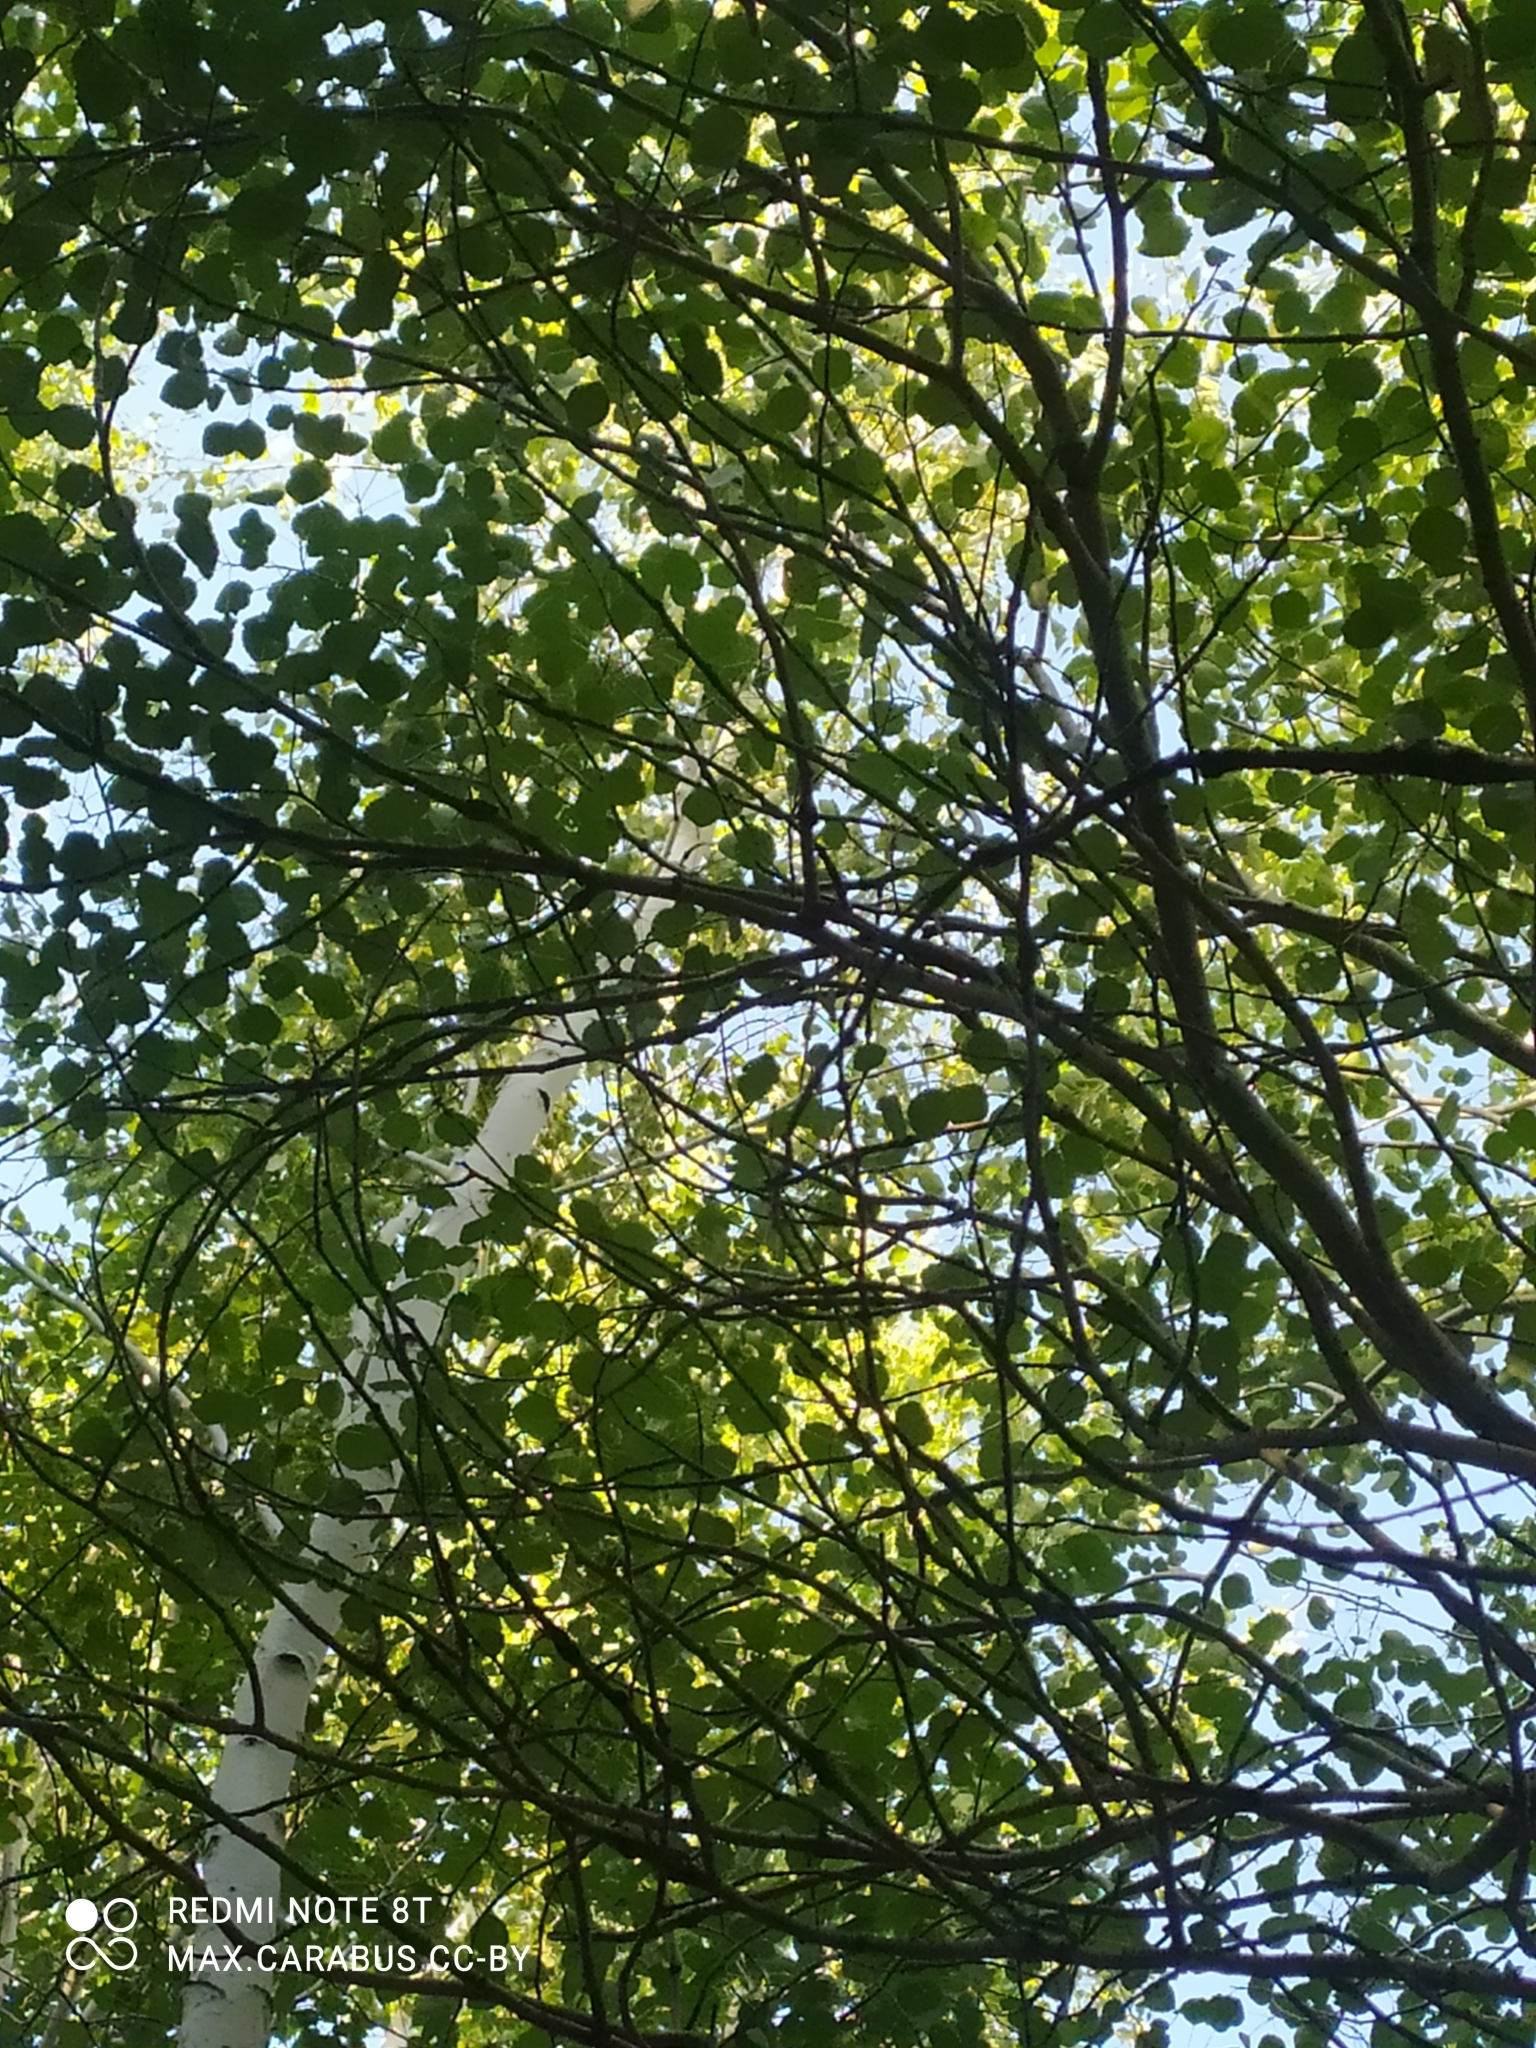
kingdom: Plantae
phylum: Tracheophyta
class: Magnoliopsida
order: Malpighiales
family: Salicaceae
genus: Populus
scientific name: Populus tremula
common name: European aspen
